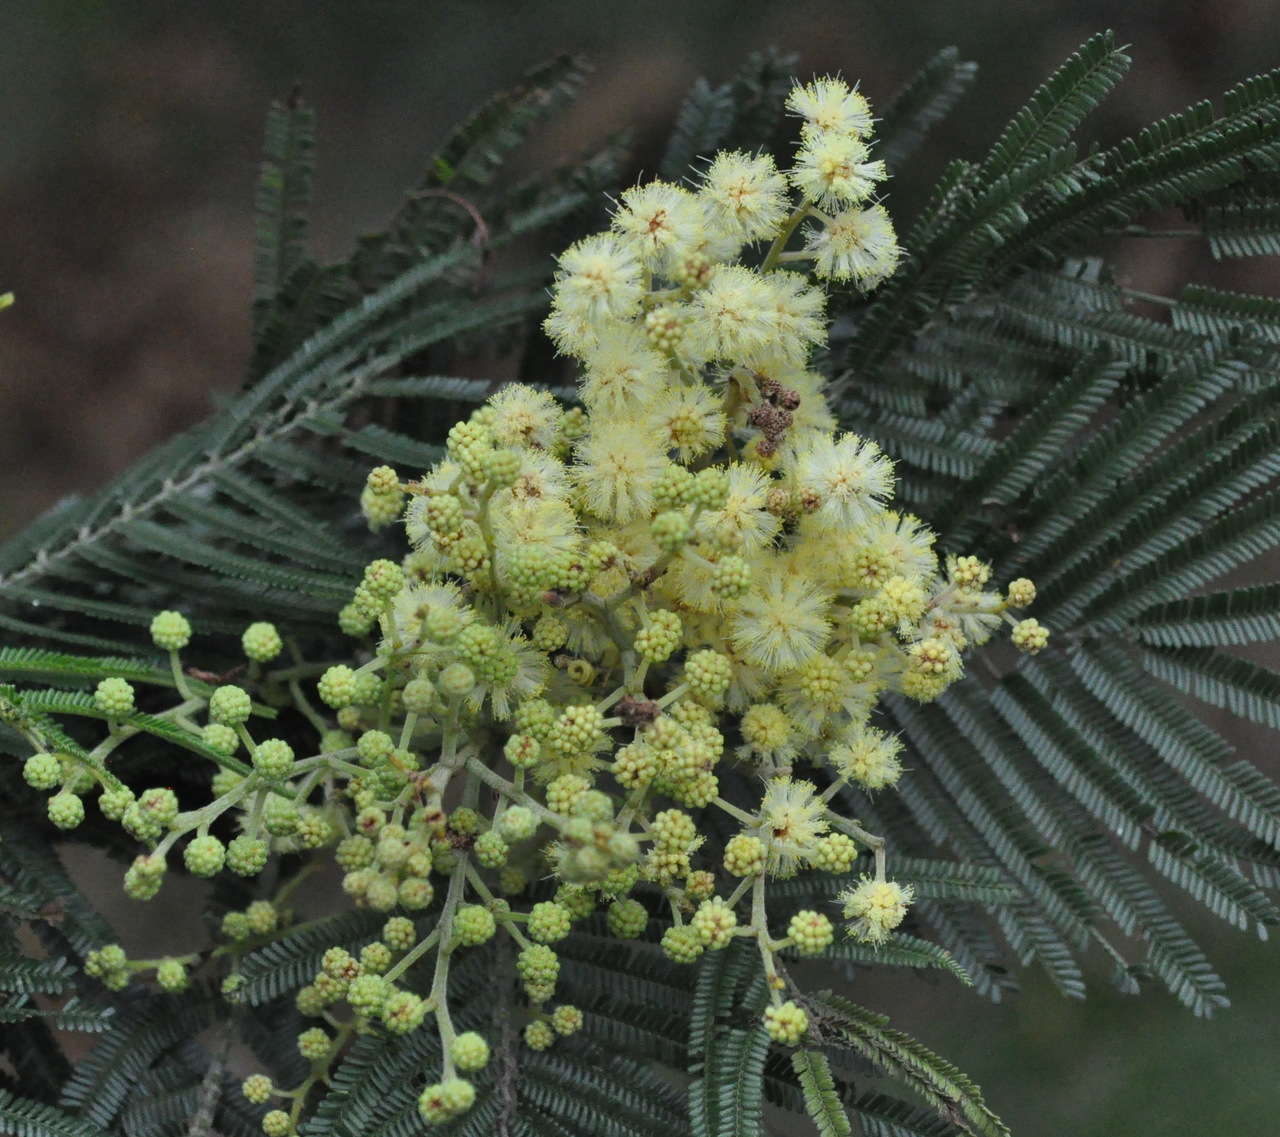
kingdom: Plantae
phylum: Tracheophyta
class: Magnoliopsida
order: Fabales
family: Fabaceae
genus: Acacia
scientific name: Acacia mearnsii
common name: Black wattle
